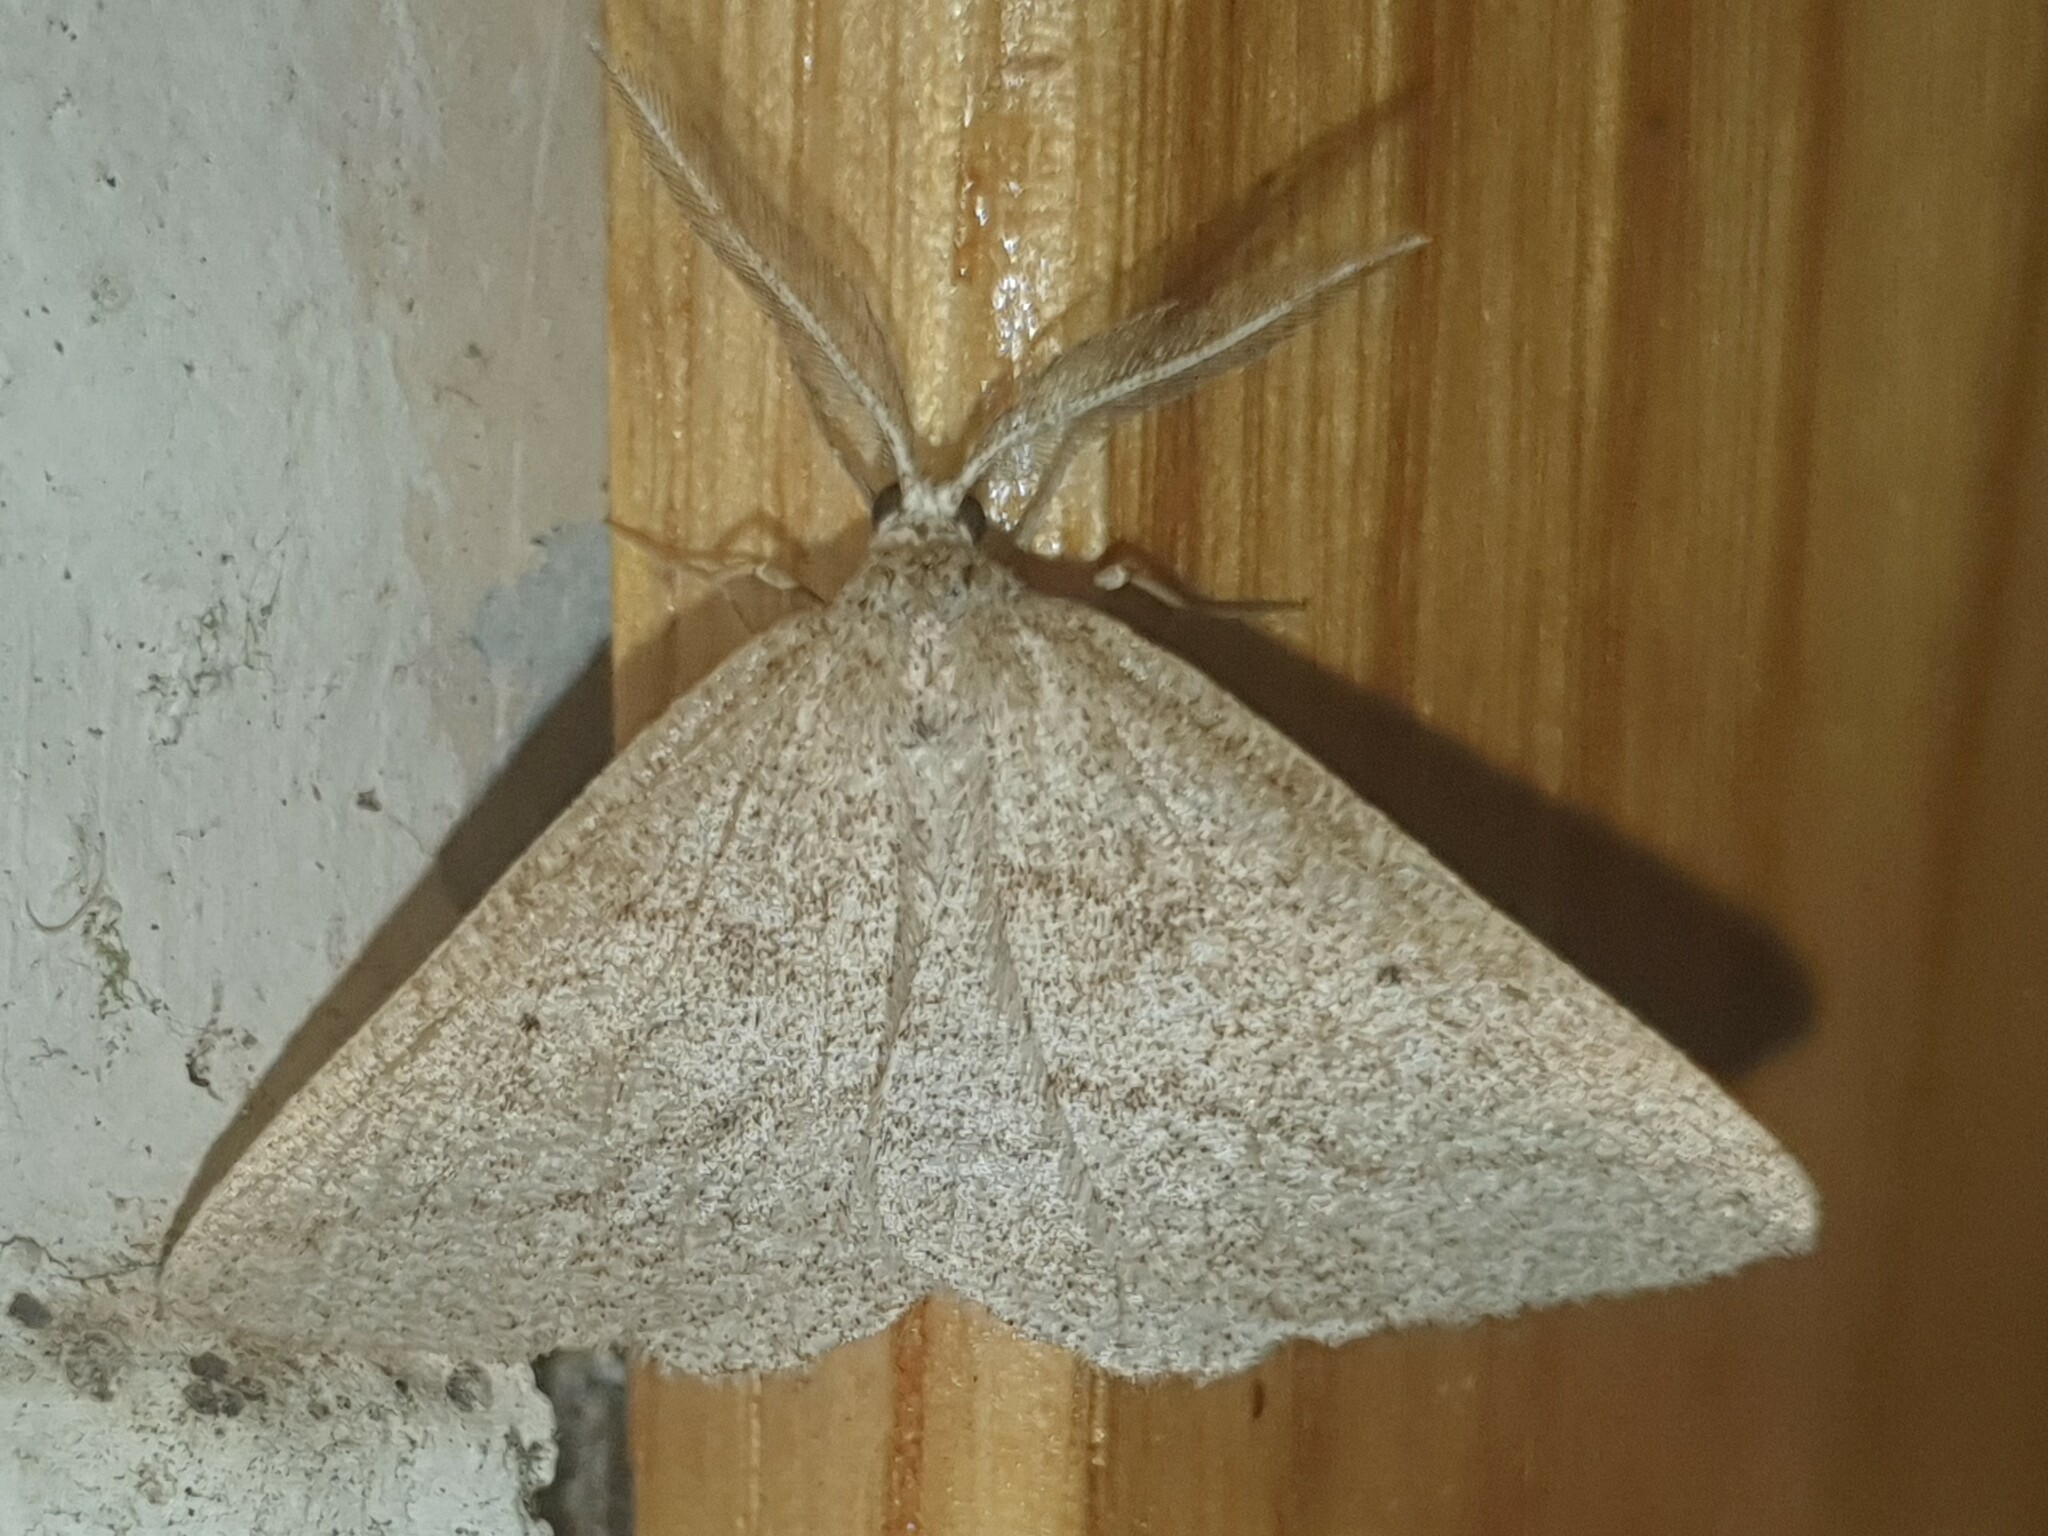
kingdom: Animalia
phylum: Arthropoda
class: Insecta
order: Lepidoptera
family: Geometridae
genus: Perconia
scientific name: Perconia baeticaria
